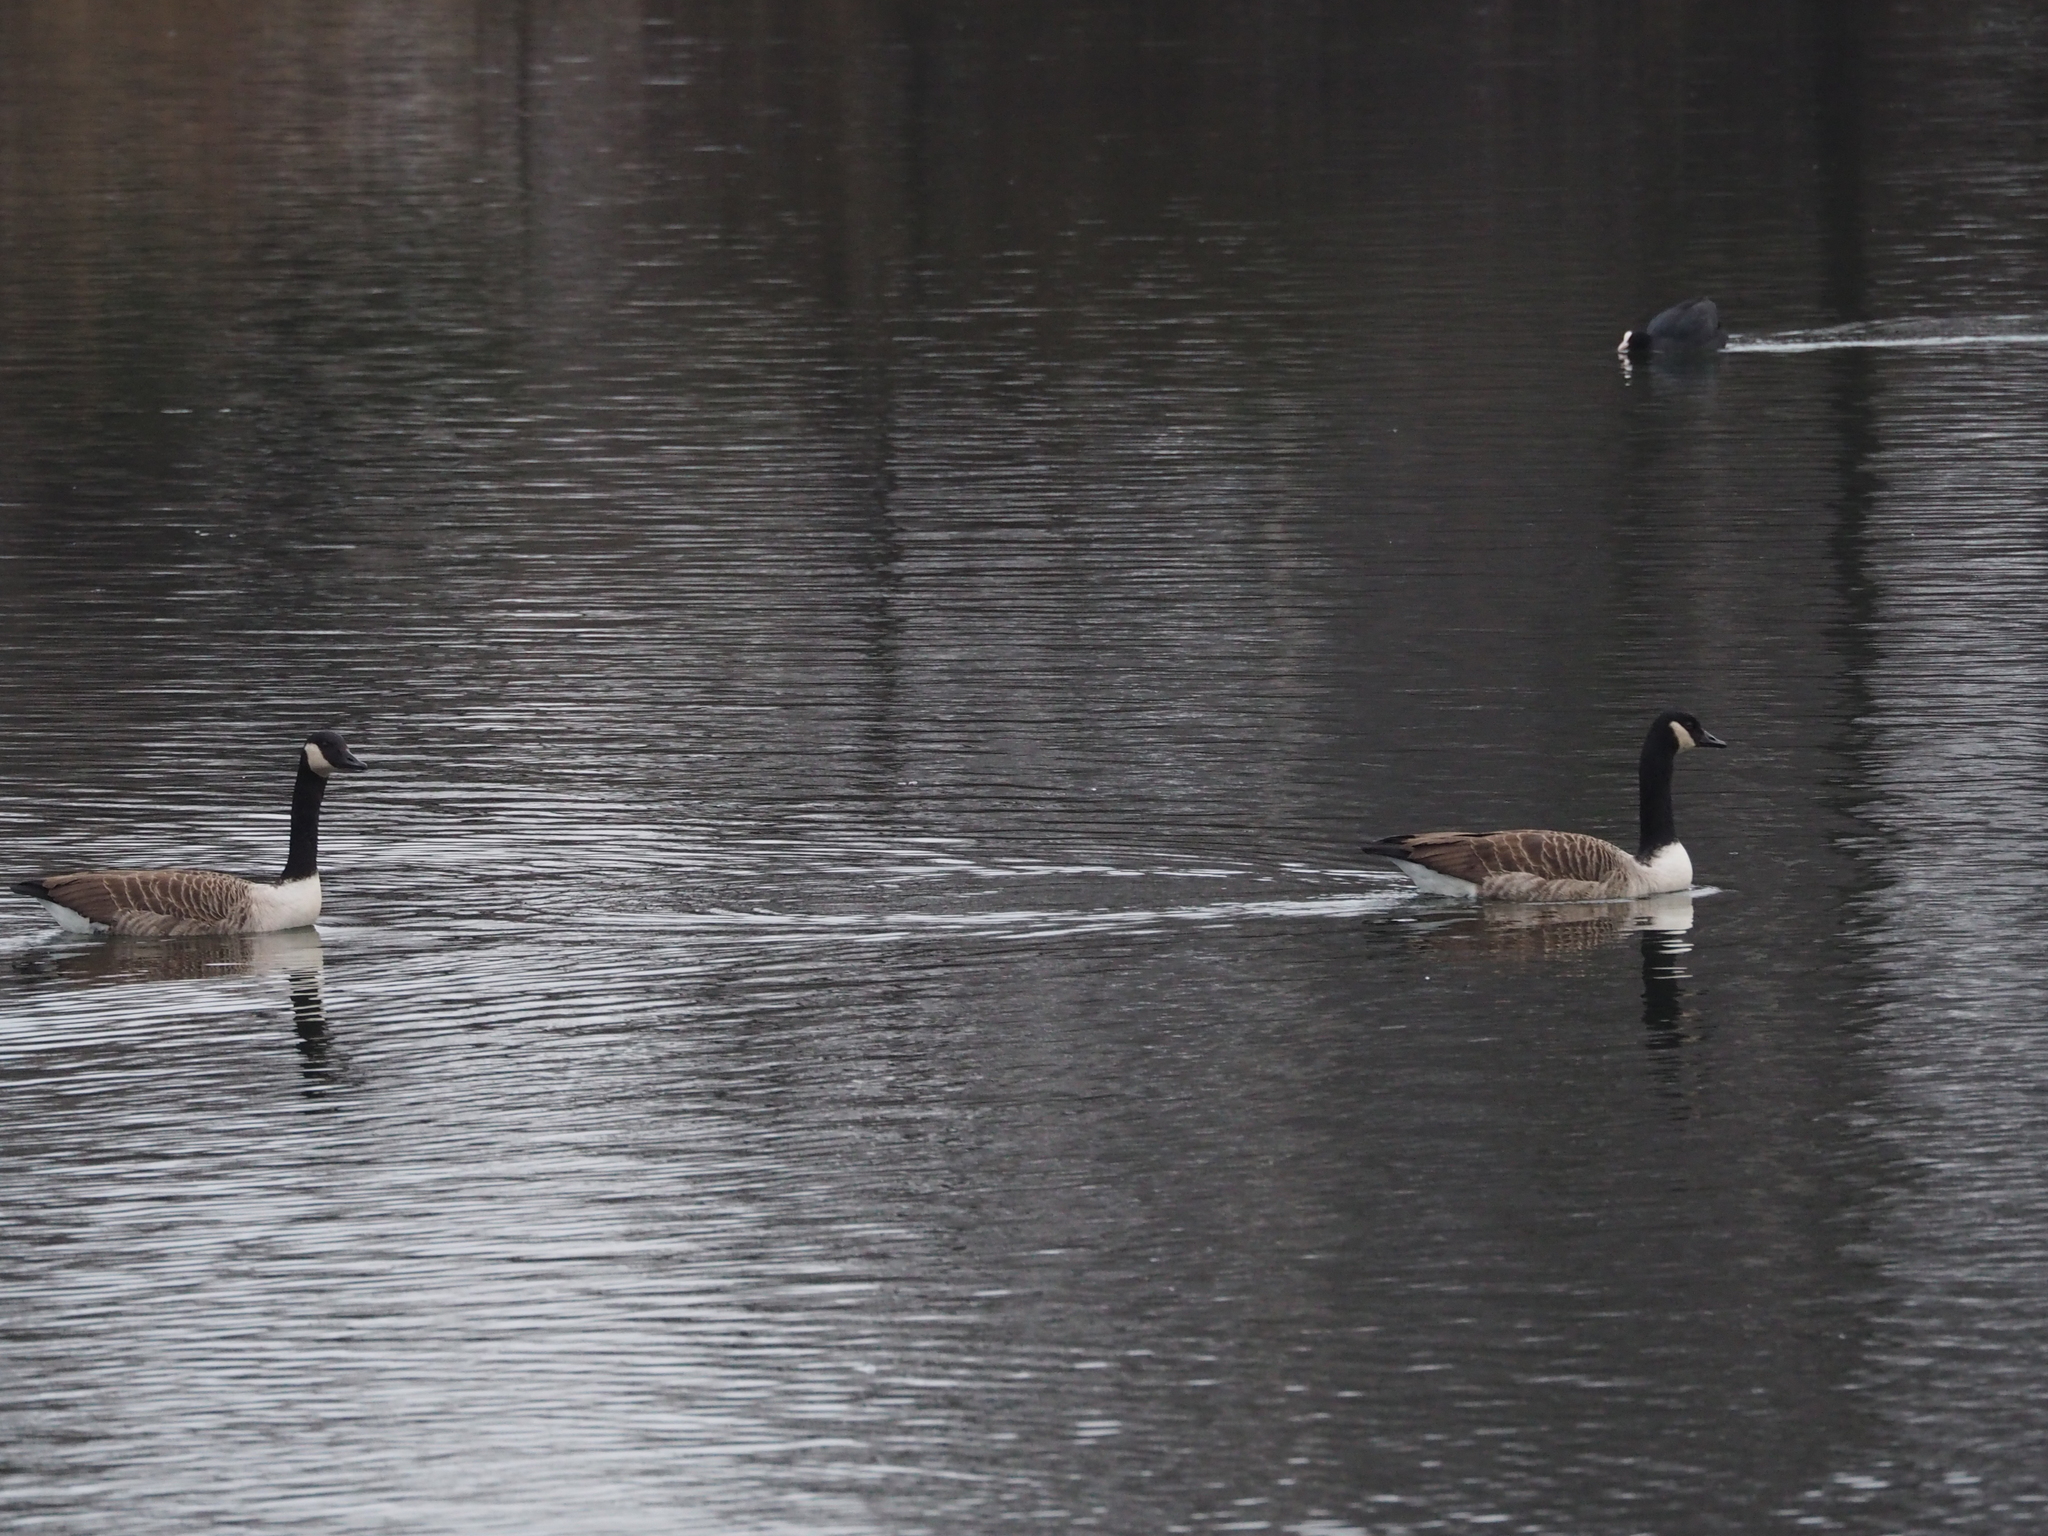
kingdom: Animalia
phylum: Chordata
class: Aves
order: Anseriformes
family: Anatidae
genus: Branta
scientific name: Branta canadensis
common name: Canada goose
